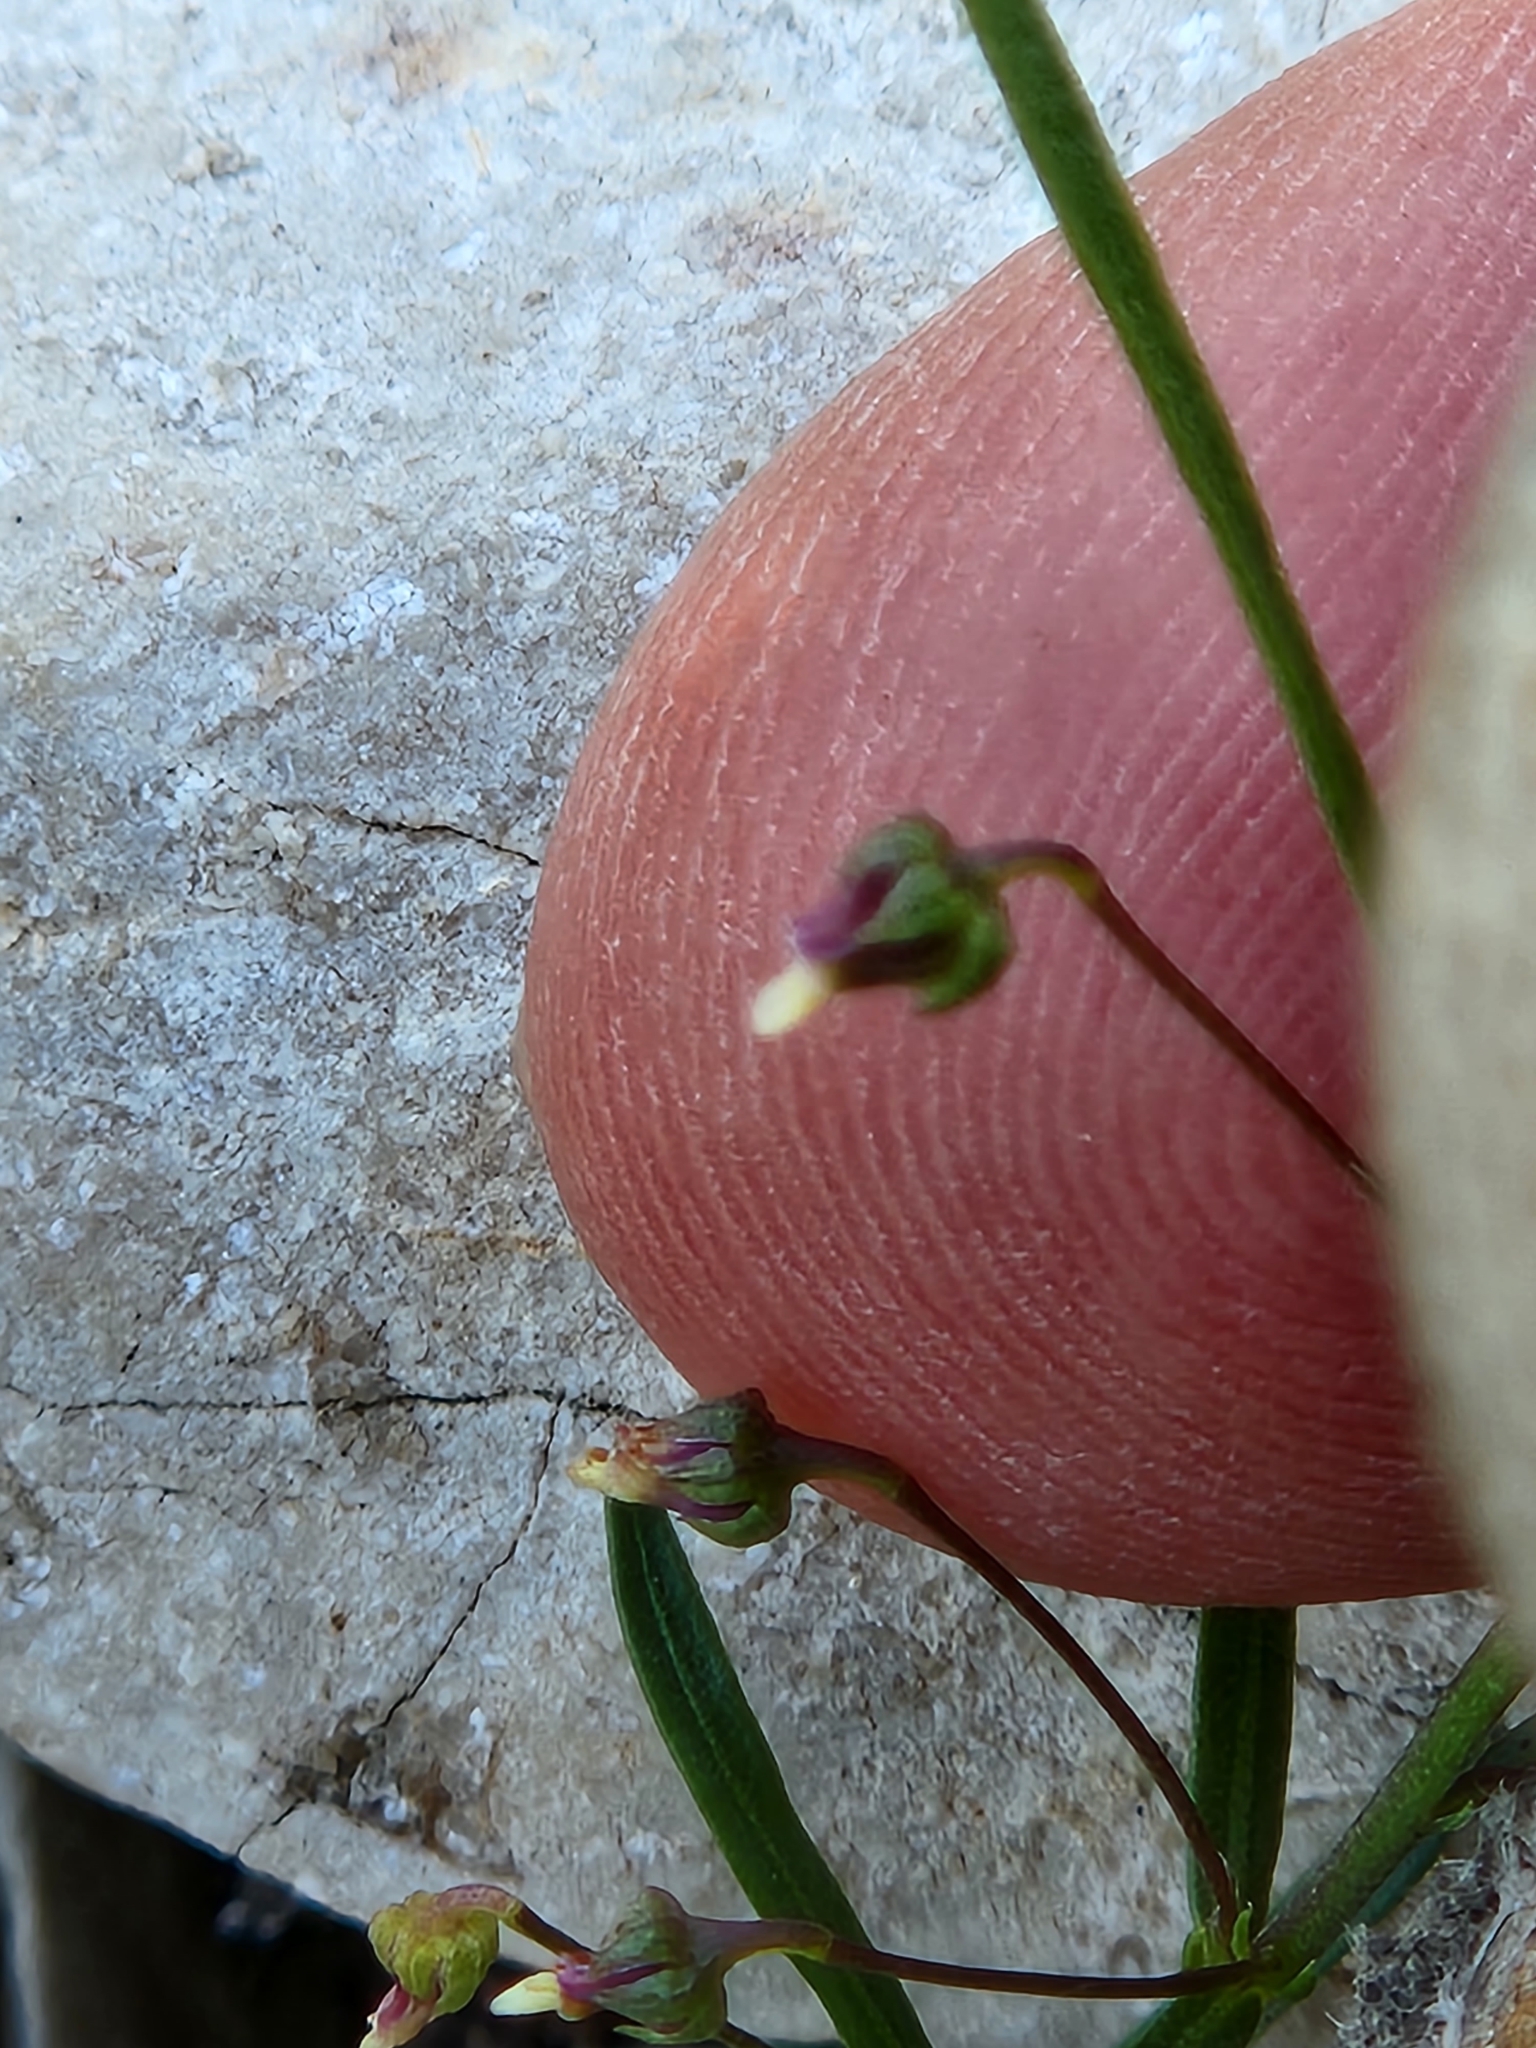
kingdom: Plantae
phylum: Tracheophyta
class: Magnoliopsida
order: Malpighiales
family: Violaceae
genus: Pombalia
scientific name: Pombalia verticillata
